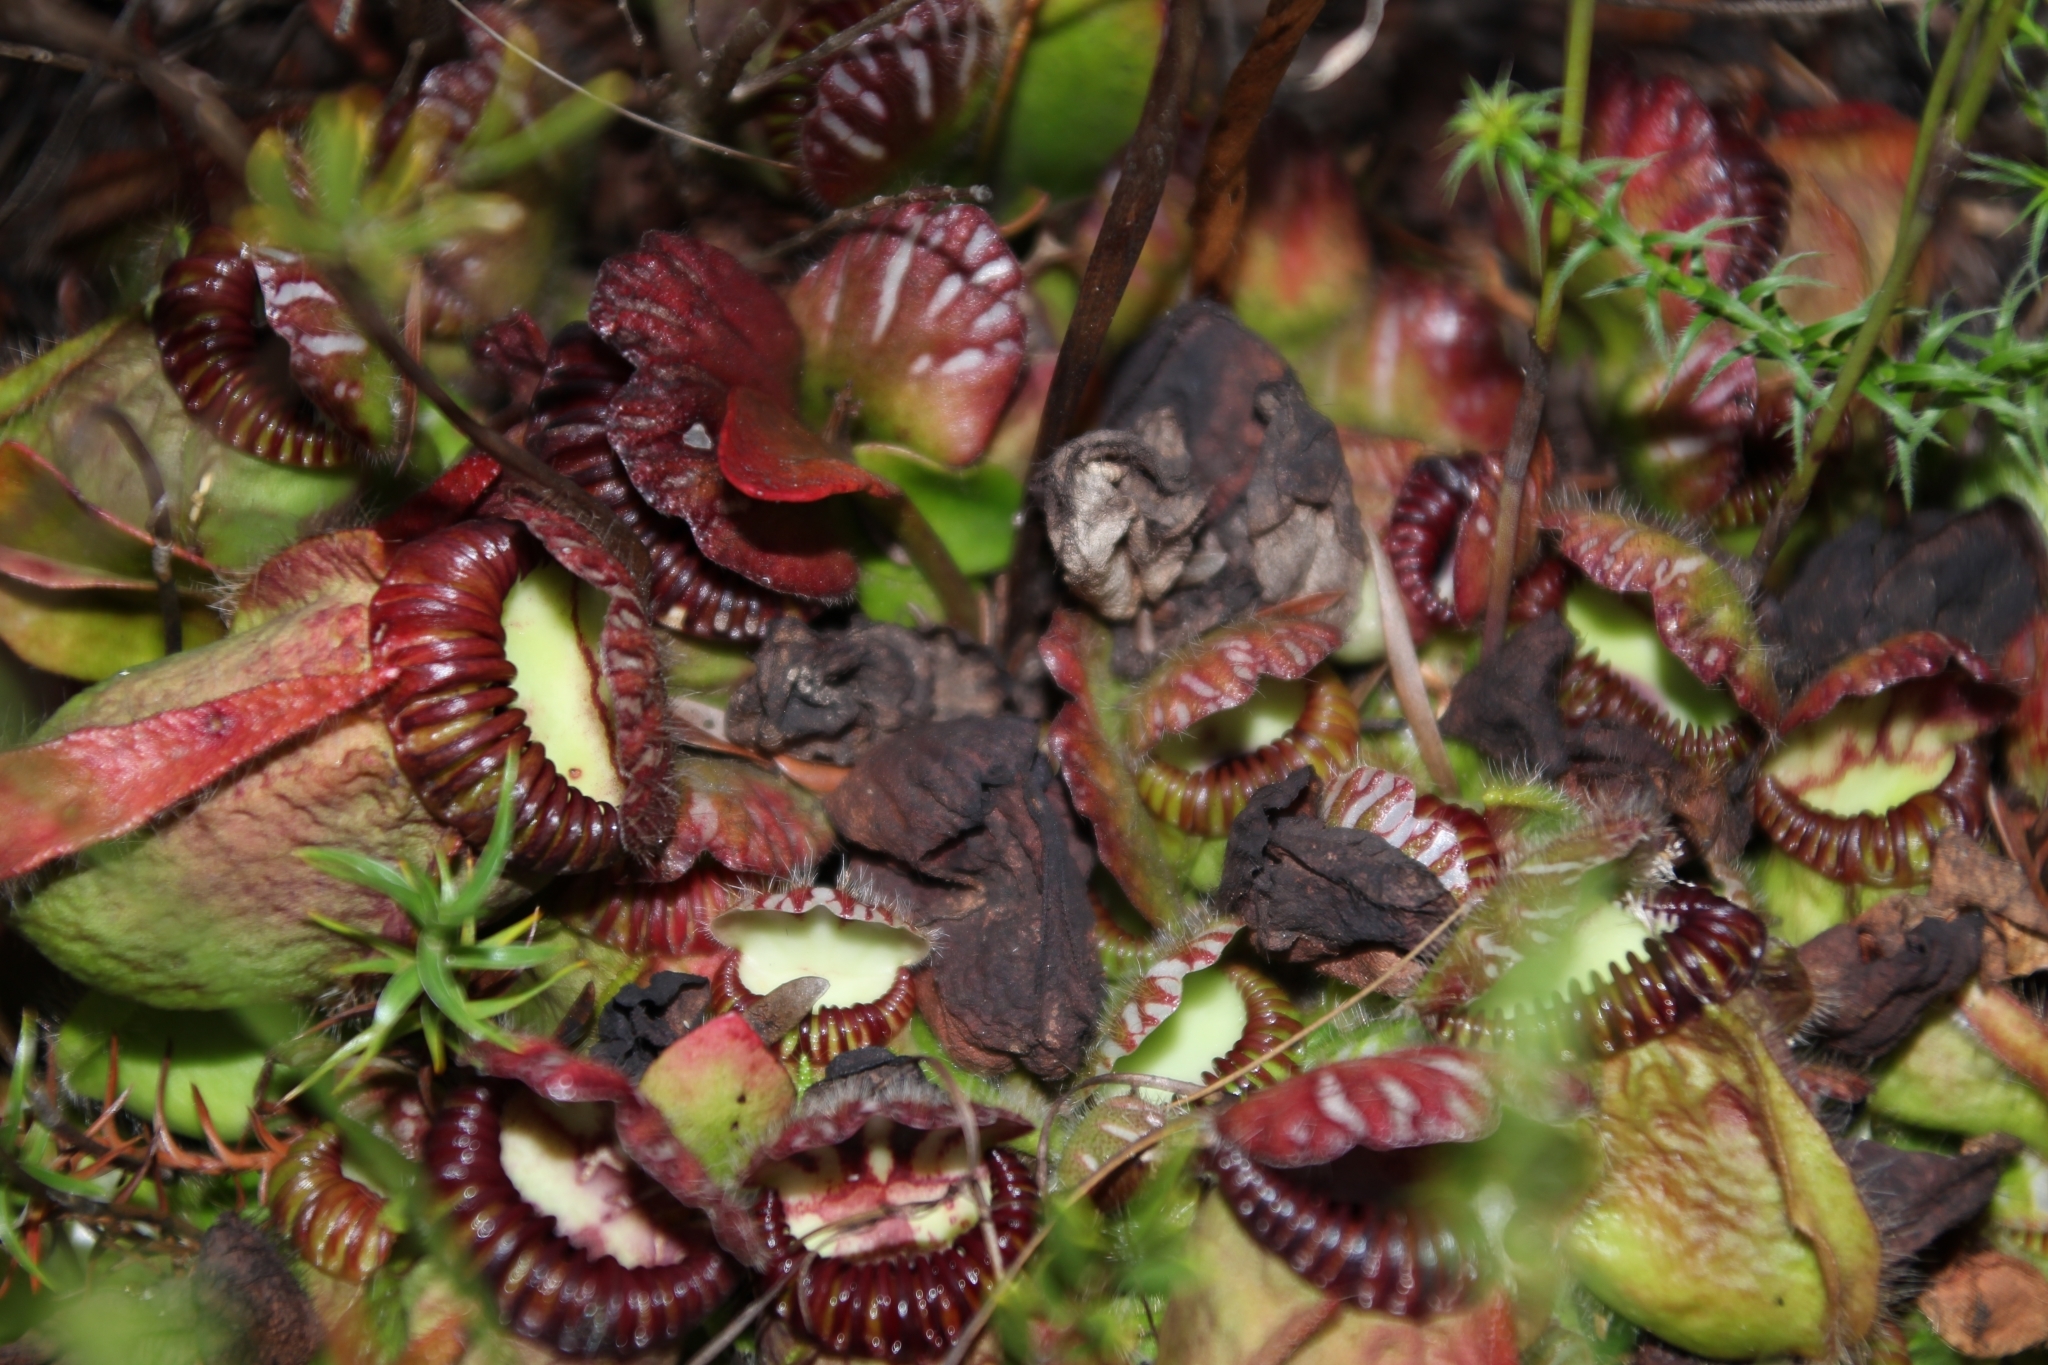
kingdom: Plantae
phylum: Tracheophyta
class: Magnoliopsida
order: Oxalidales
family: Cephalotaceae
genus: Cephalotus
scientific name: Cephalotus follicularis
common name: Australian pitcher plant
